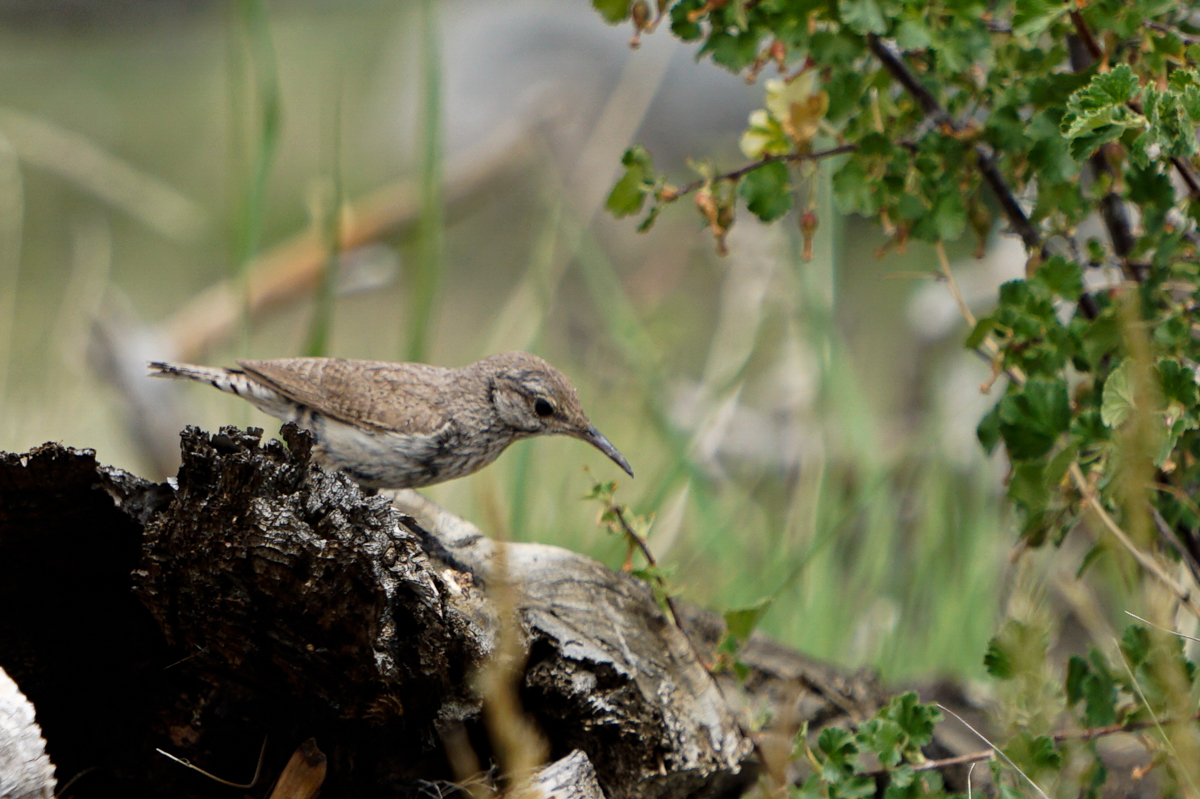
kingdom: Animalia
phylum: Chordata
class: Aves
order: Passeriformes
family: Troglodytidae
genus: Salpinctes
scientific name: Salpinctes obsoletus
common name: Rock wren
